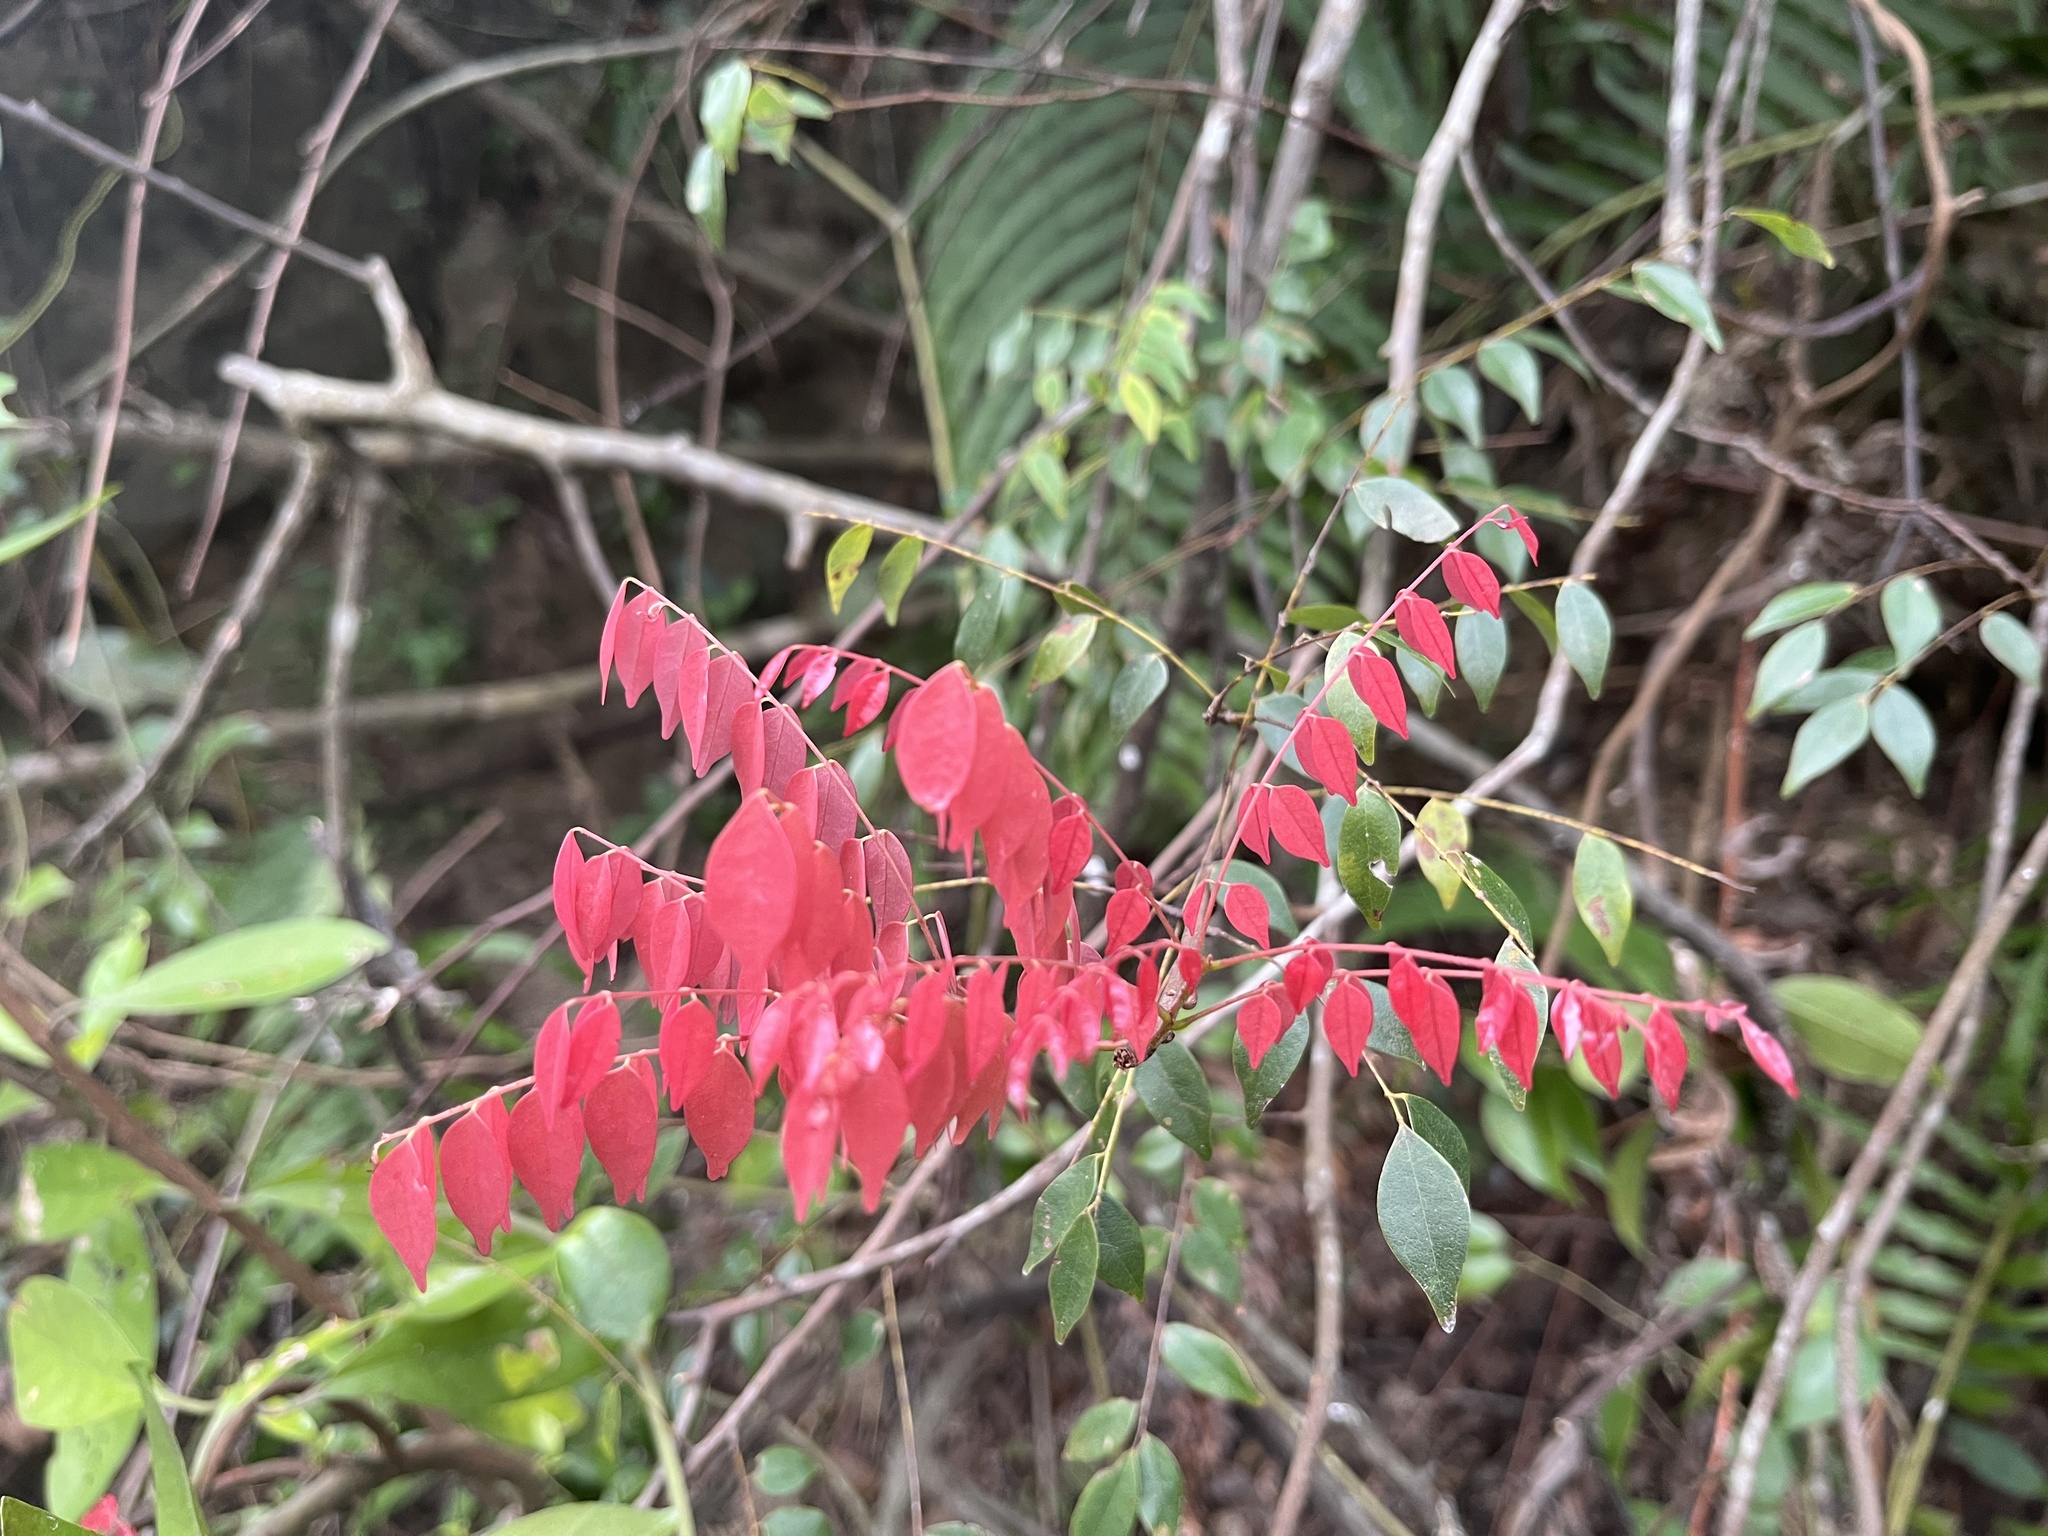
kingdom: Plantae
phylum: Tracheophyta
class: Magnoliopsida
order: Oxalidales
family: Connaraceae
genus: Rourea
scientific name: Rourea microphylla
